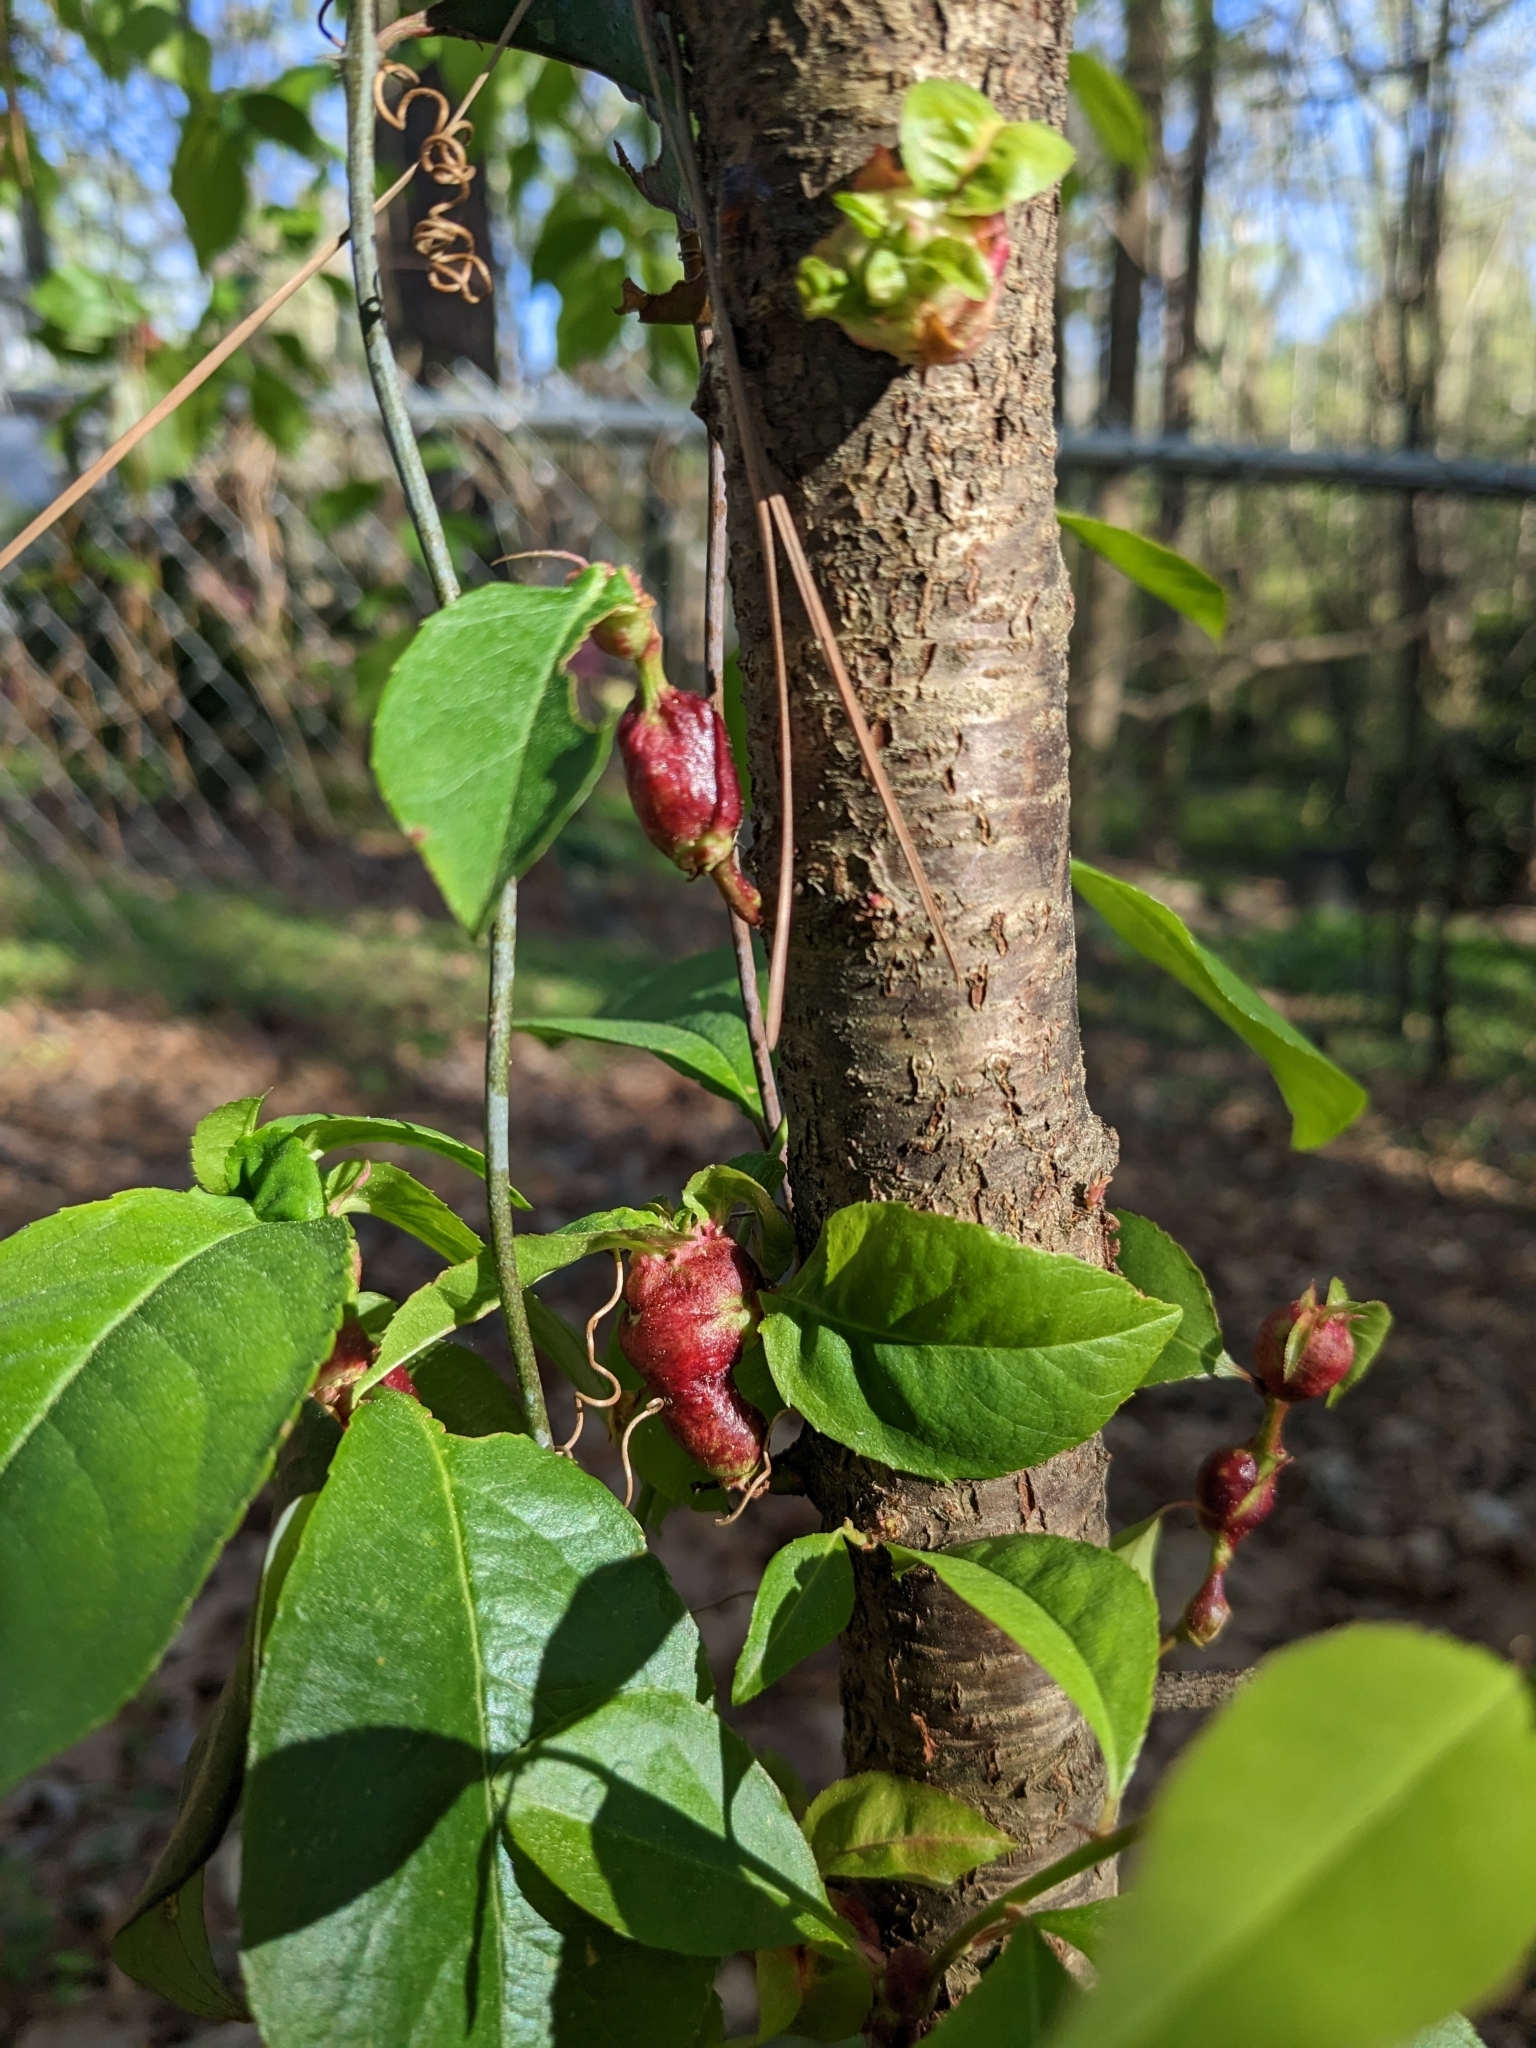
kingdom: Animalia
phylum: Arthropoda
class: Insecta
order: Diptera
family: Cecidomyiidae
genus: Contarinia
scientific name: Contarinia cerasiserotinae
